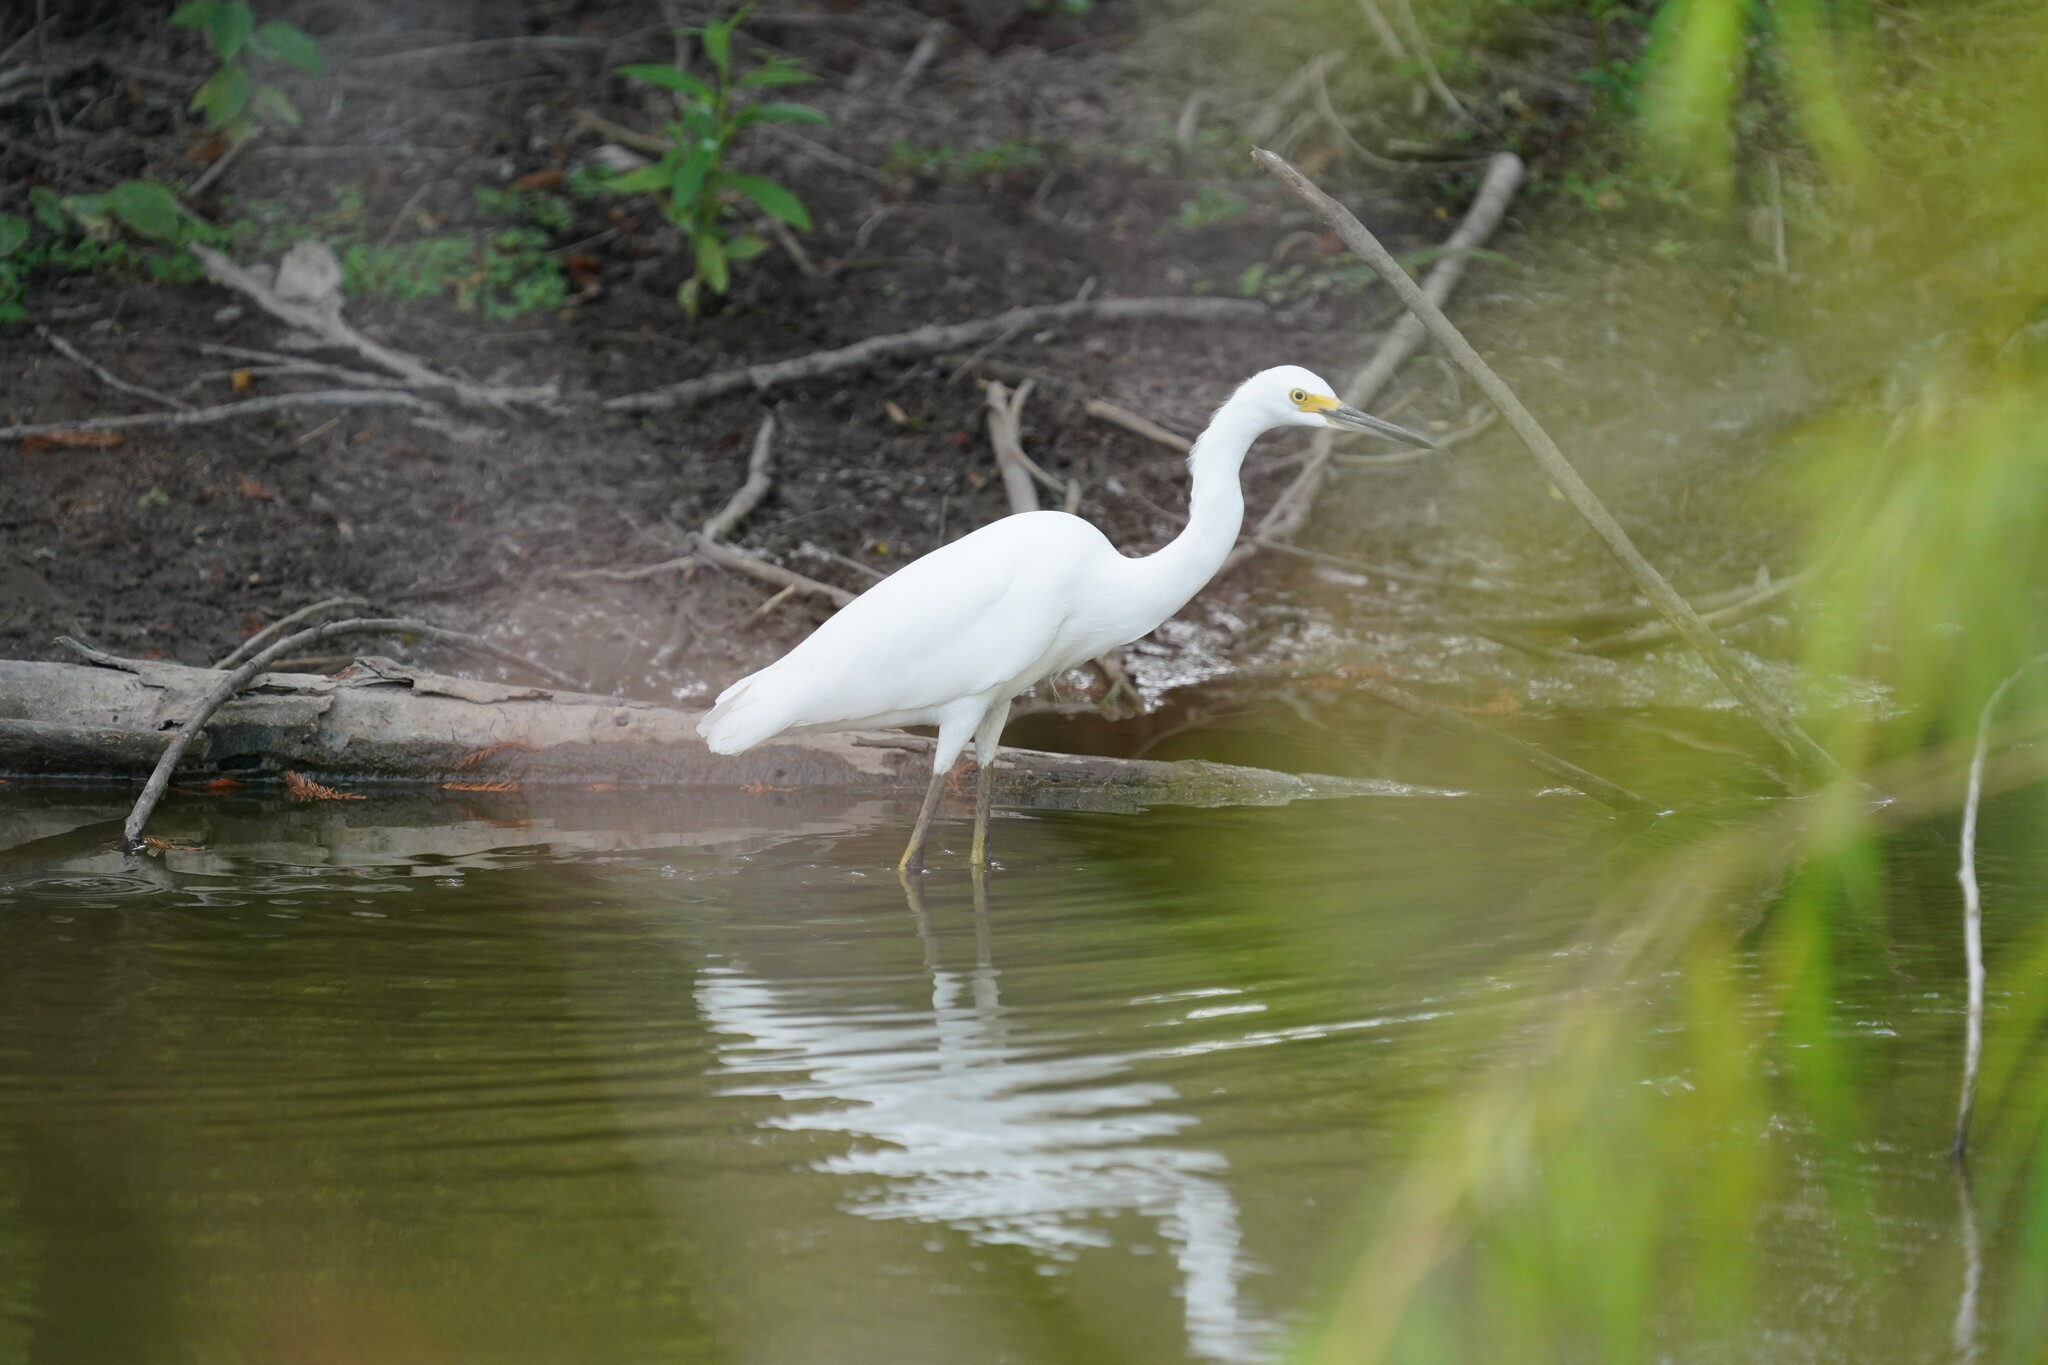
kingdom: Animalia
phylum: Chordata
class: Aves
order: Pelecaniformes
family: Ardeidae
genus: Egretta
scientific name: Egretta thula
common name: Snowy egret
